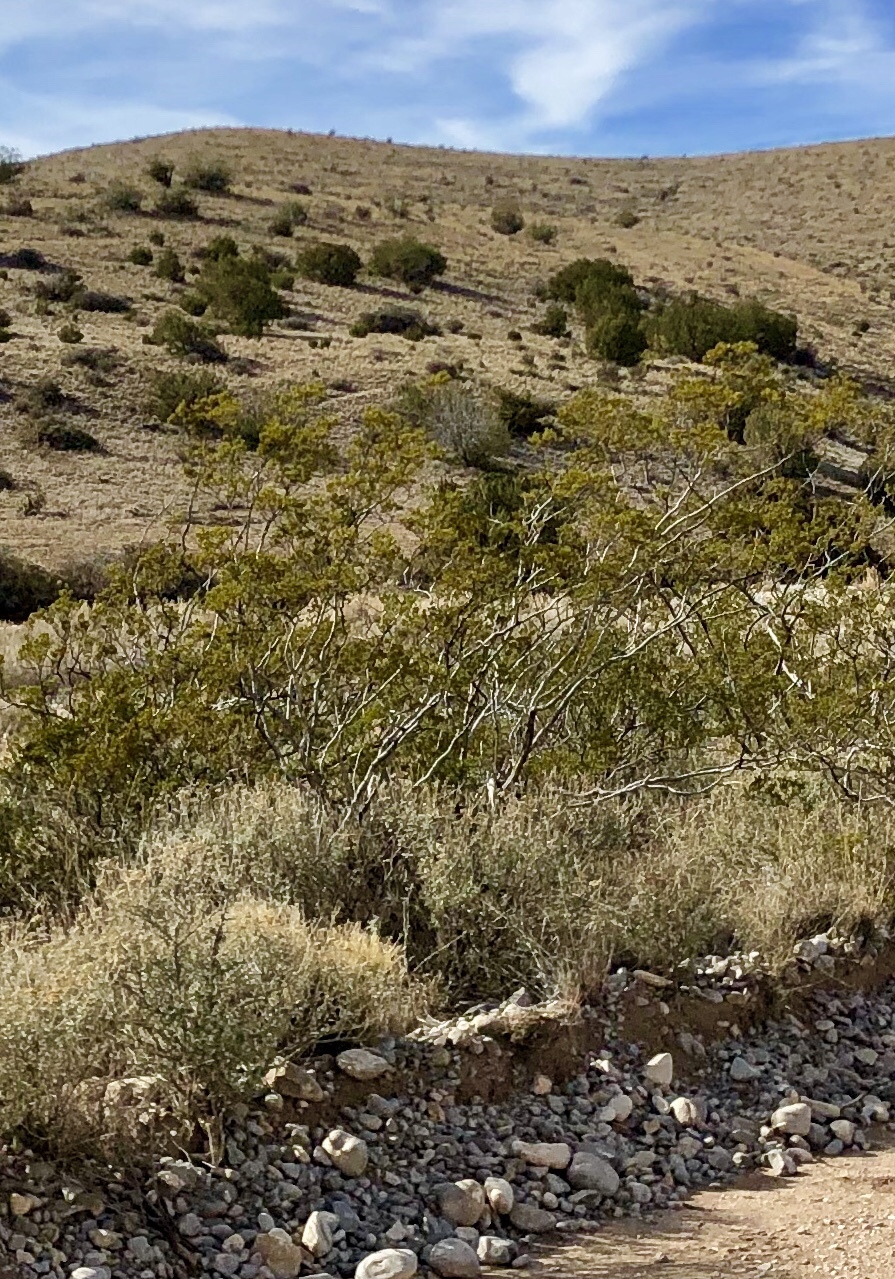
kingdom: Plantae
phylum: Tracheophyta
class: Magnoliopsida
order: Zygophyllales
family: Zygophyllaceae
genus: Larrea
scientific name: Larrea tridentata
